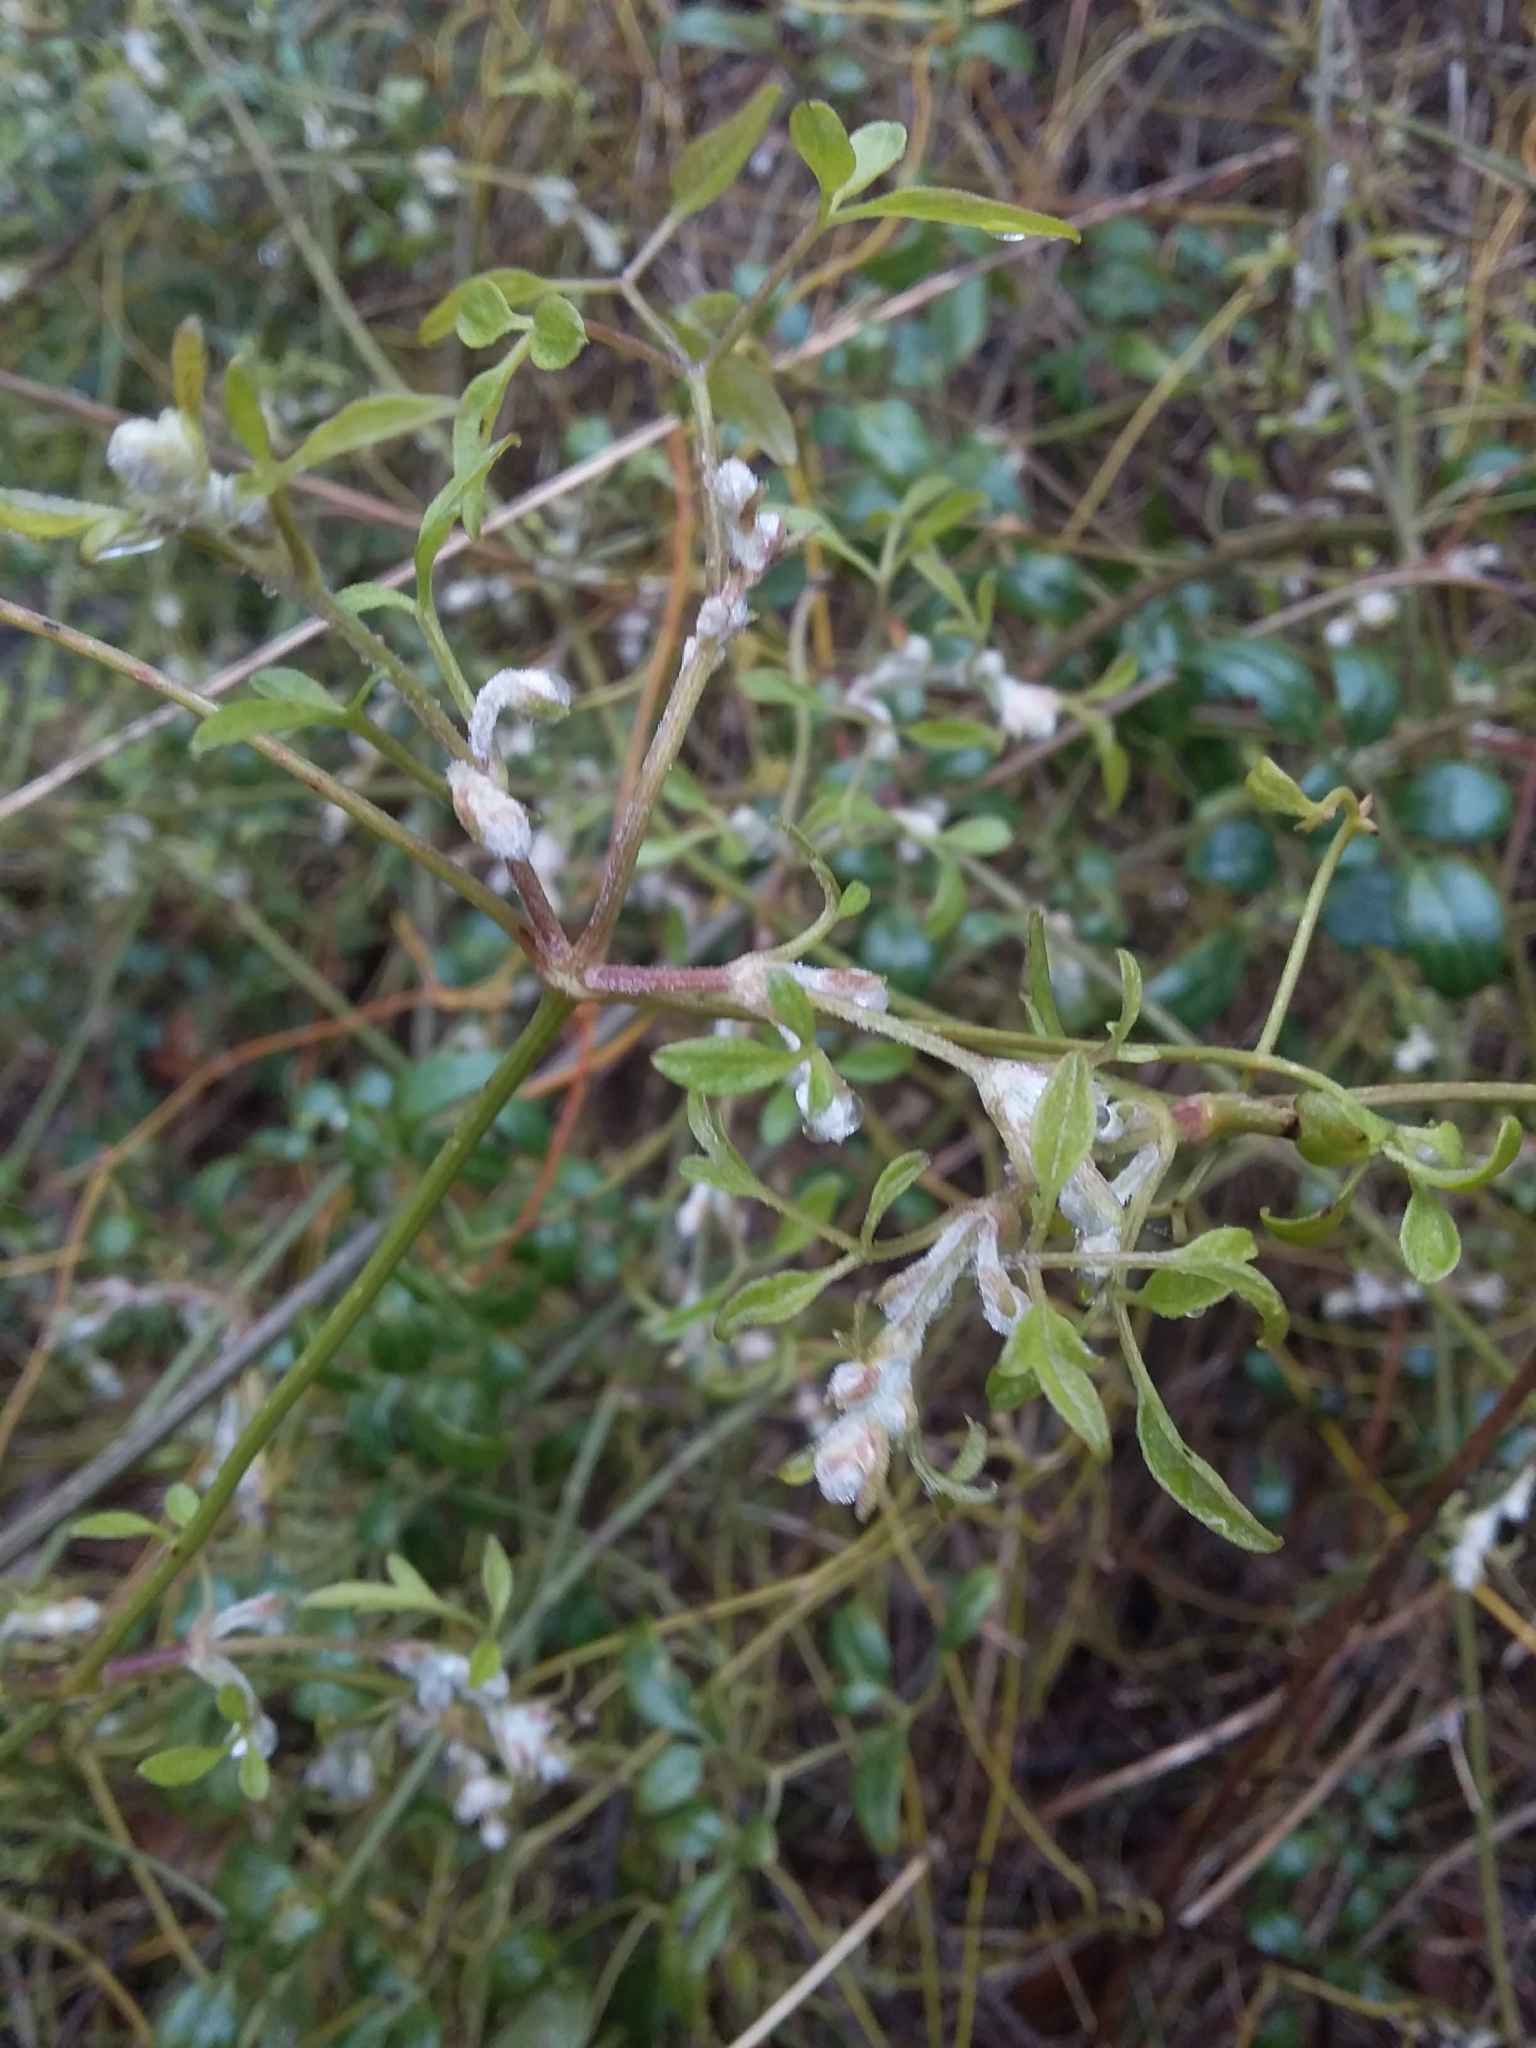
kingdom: Plantae
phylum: Tracheophyta
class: Magnoliopsida
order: Ranunculales
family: Ranunculaceae
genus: Clematis
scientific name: Clematis microphylla
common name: Headachevine
